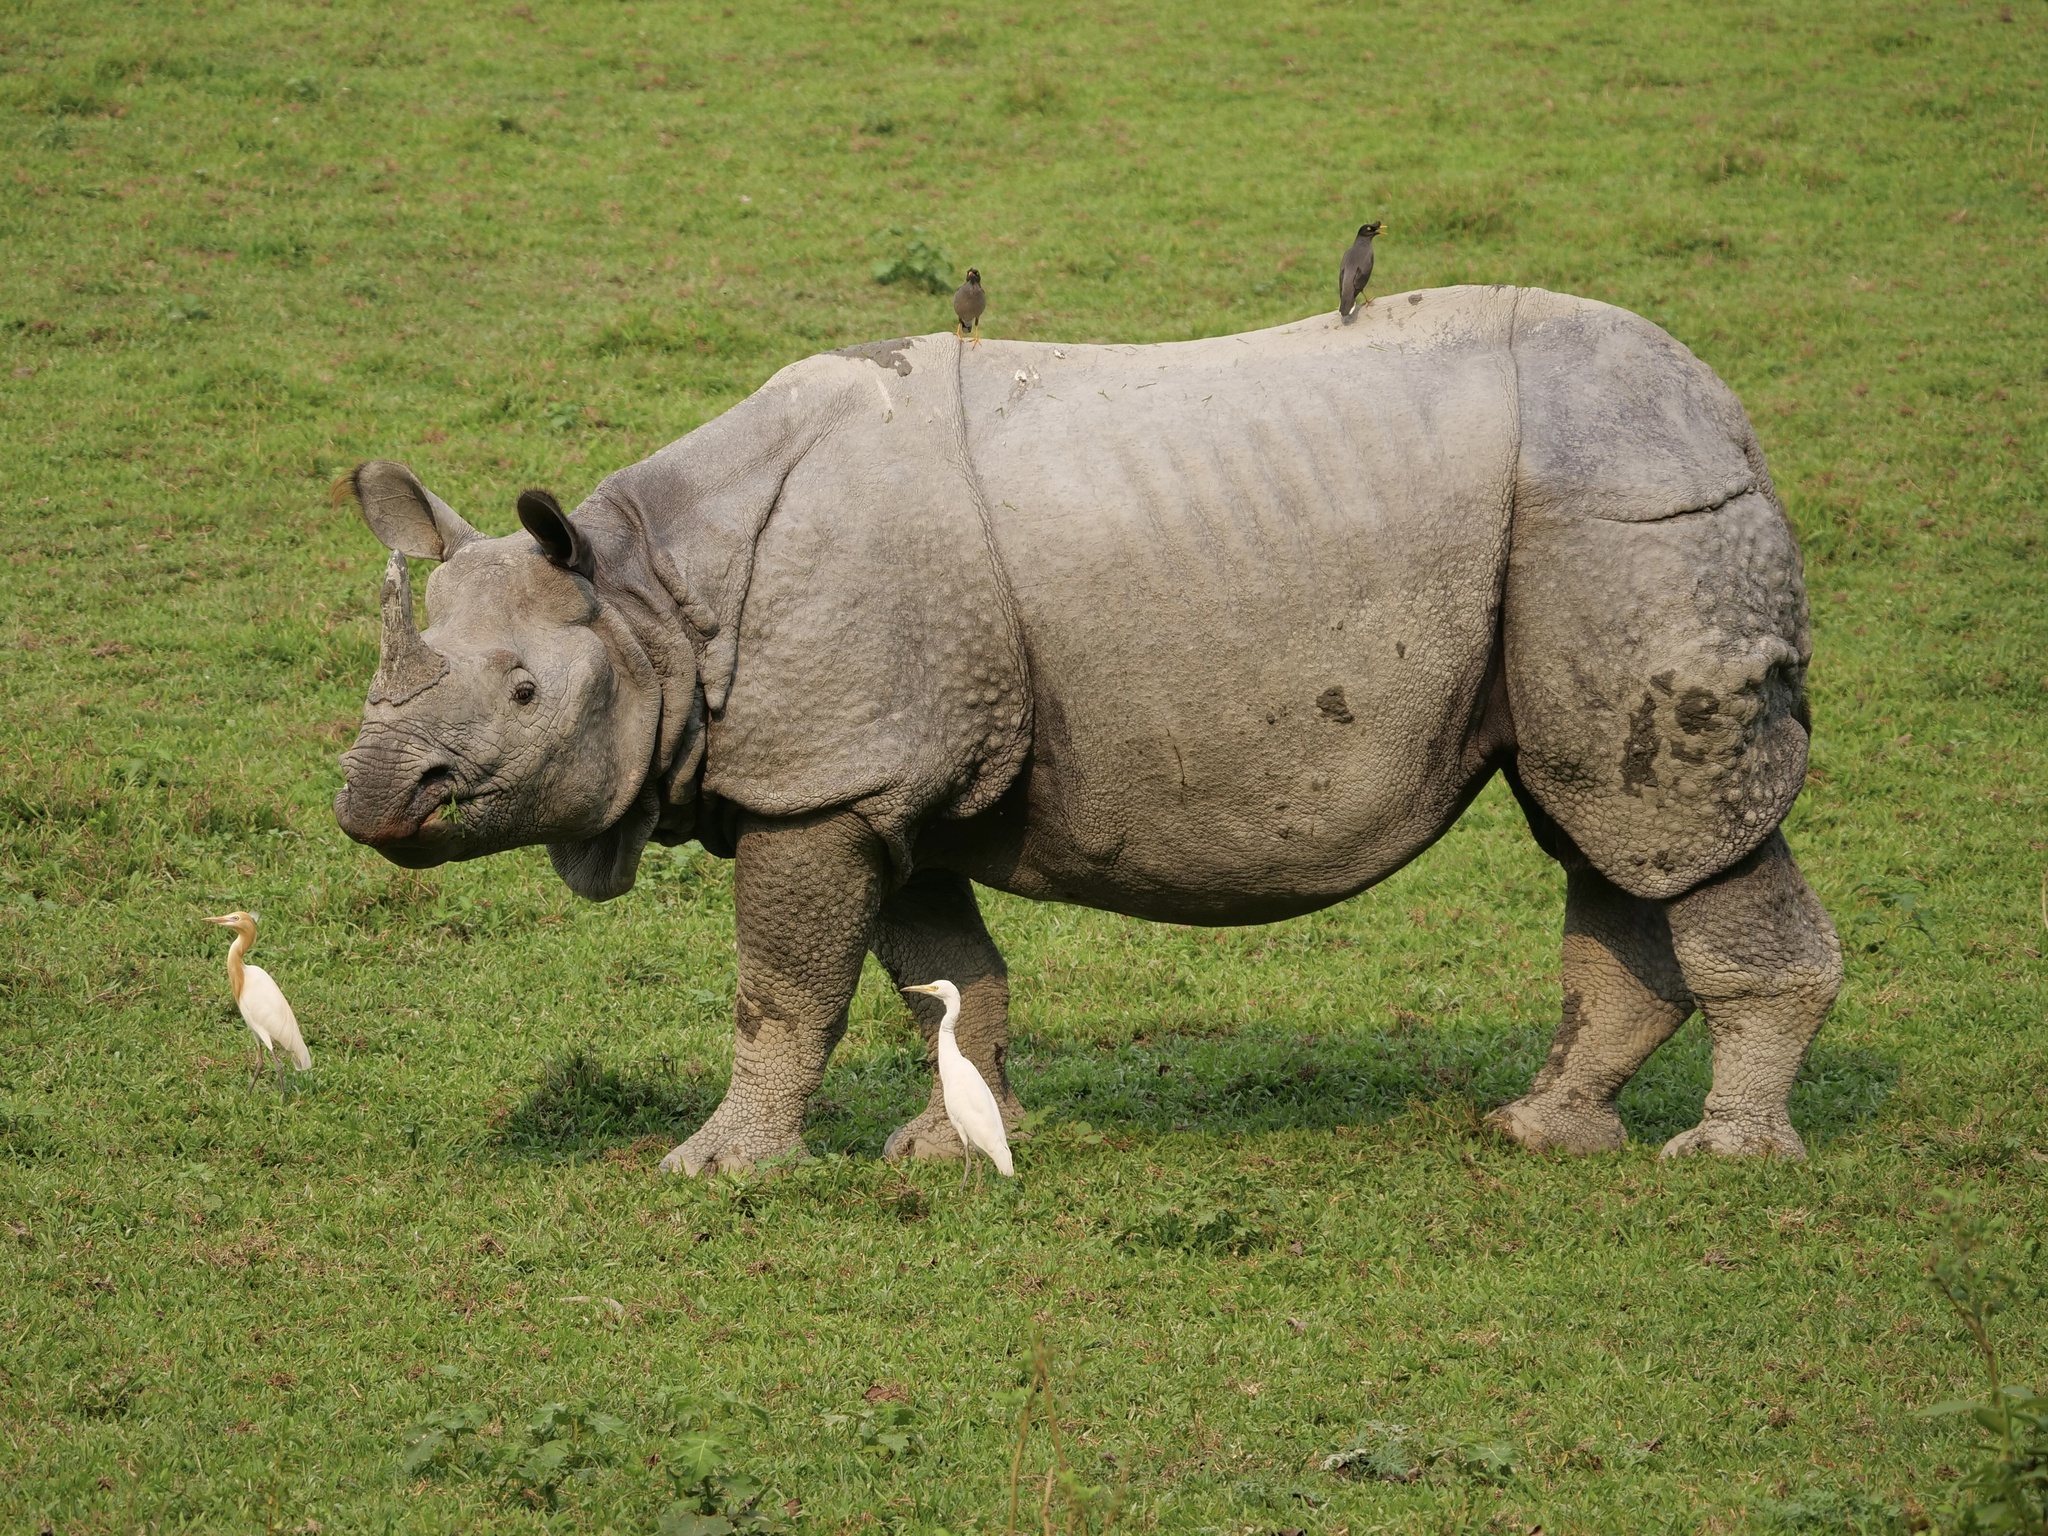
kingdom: Animalia
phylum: Chordata
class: Mammalia
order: Perissodactyla
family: Rhinocerotidae
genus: Rhinoceros
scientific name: Rhinoceros unicornis
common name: Indian rhinoceros
